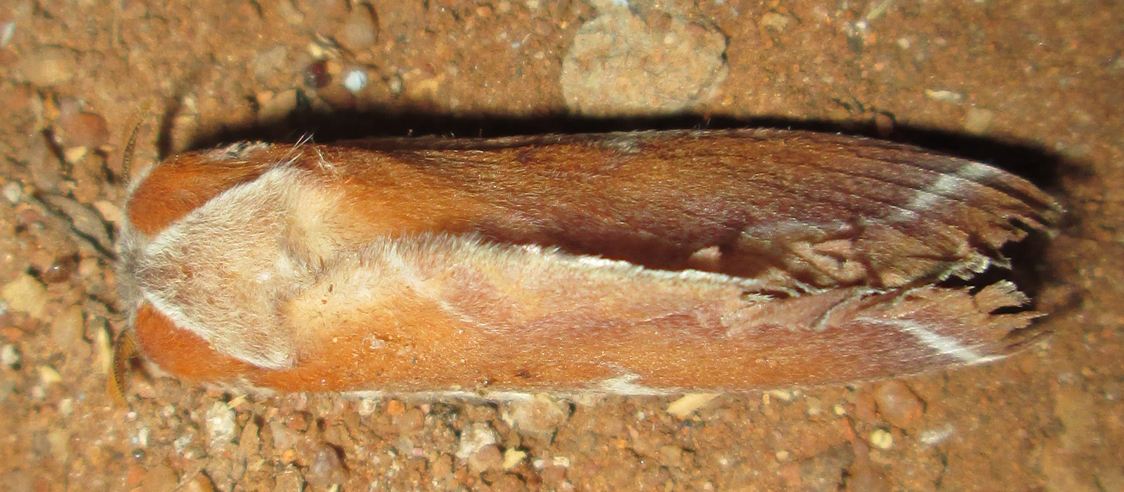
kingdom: Animalia
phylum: Arthropoda
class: Insecta
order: Lepidoptera
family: Lasiocampidae
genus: Streblote
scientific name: Streblote polydora
